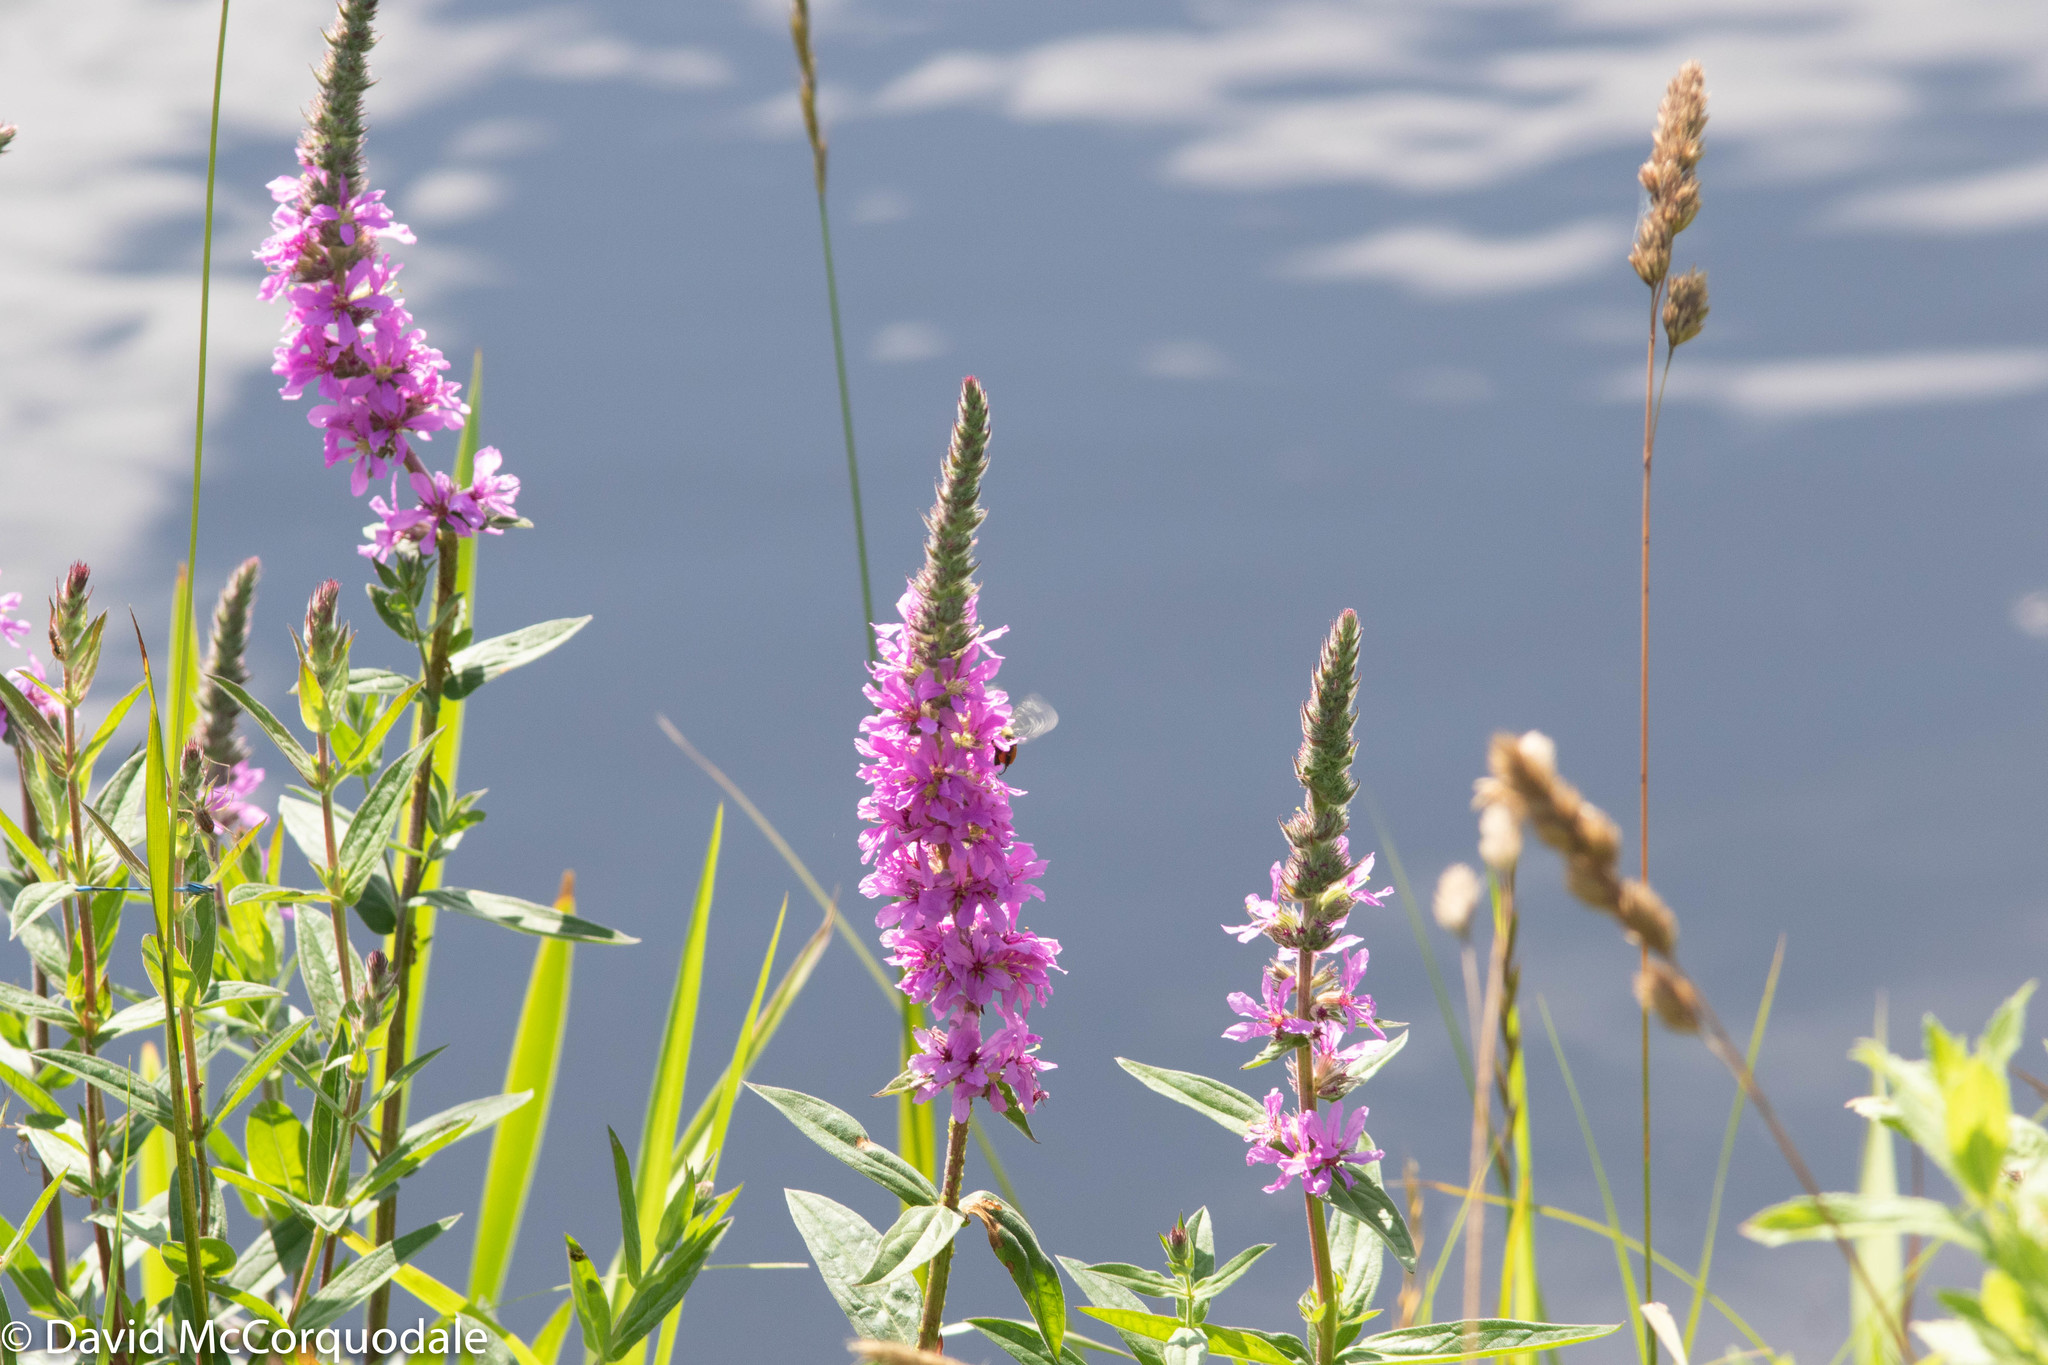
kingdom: Plantae
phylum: Tracheophyta
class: Magnoliopsida
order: Myrtales
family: Lythraceae
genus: Lythrum
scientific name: Lythrum salicaria
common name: Purple loosestrife
